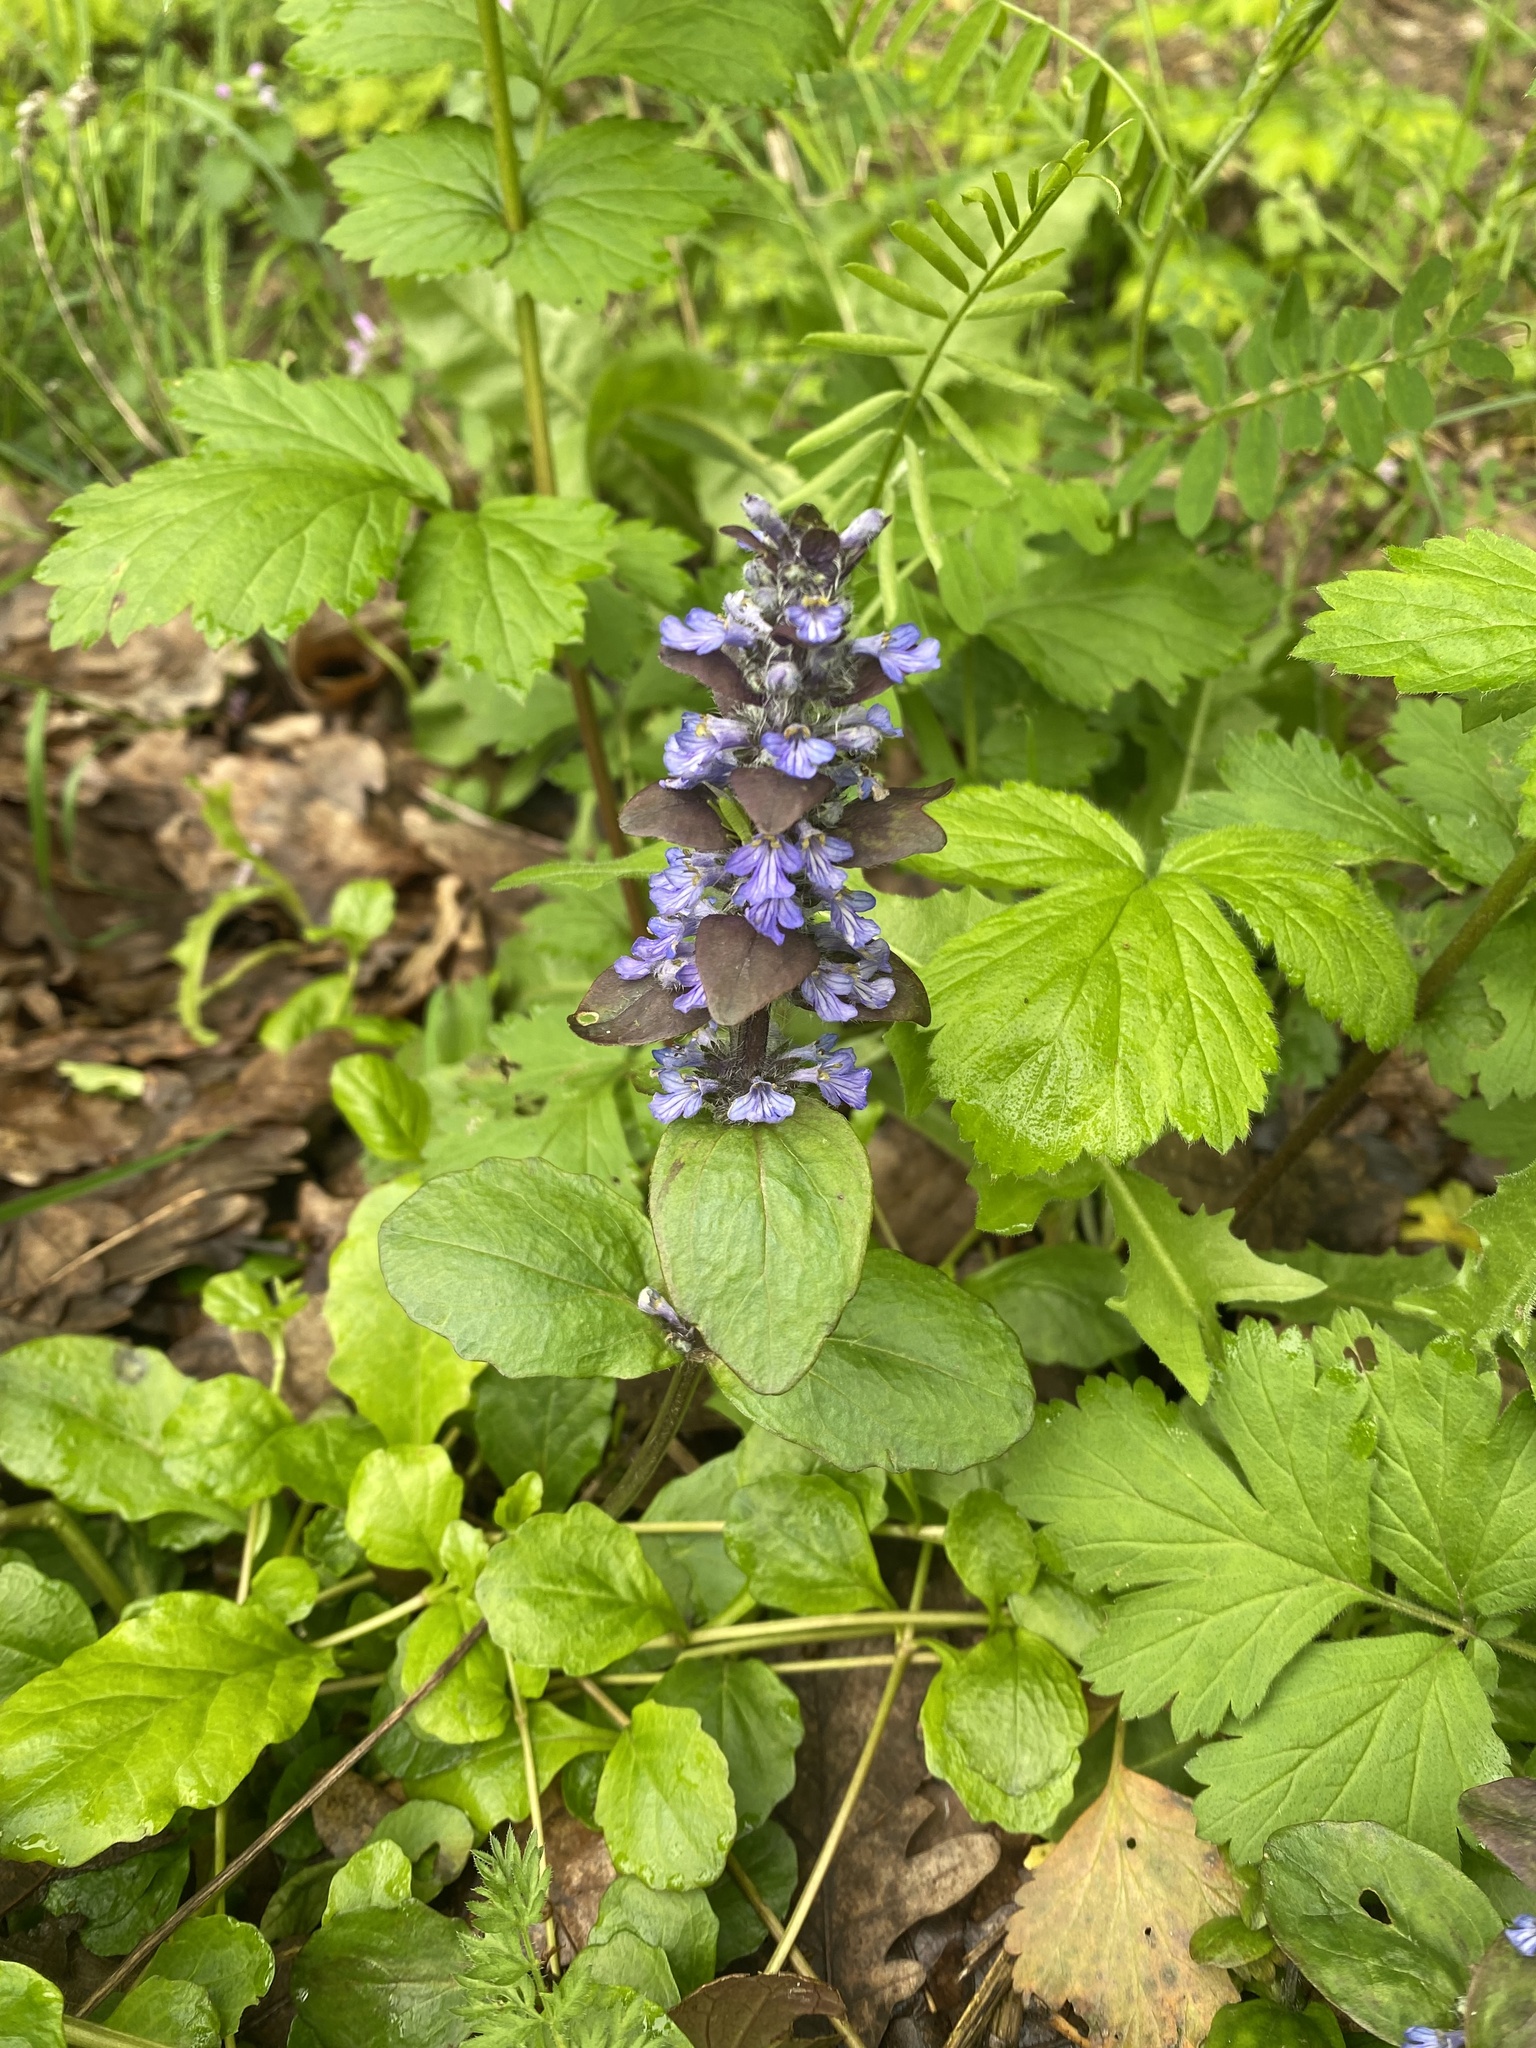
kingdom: Plantae
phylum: Tracheophyta
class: Magnoliopsida
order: Lamiales
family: Lamiaceae
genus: Ajuga
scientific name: Ajuga reptans
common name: Bugle
